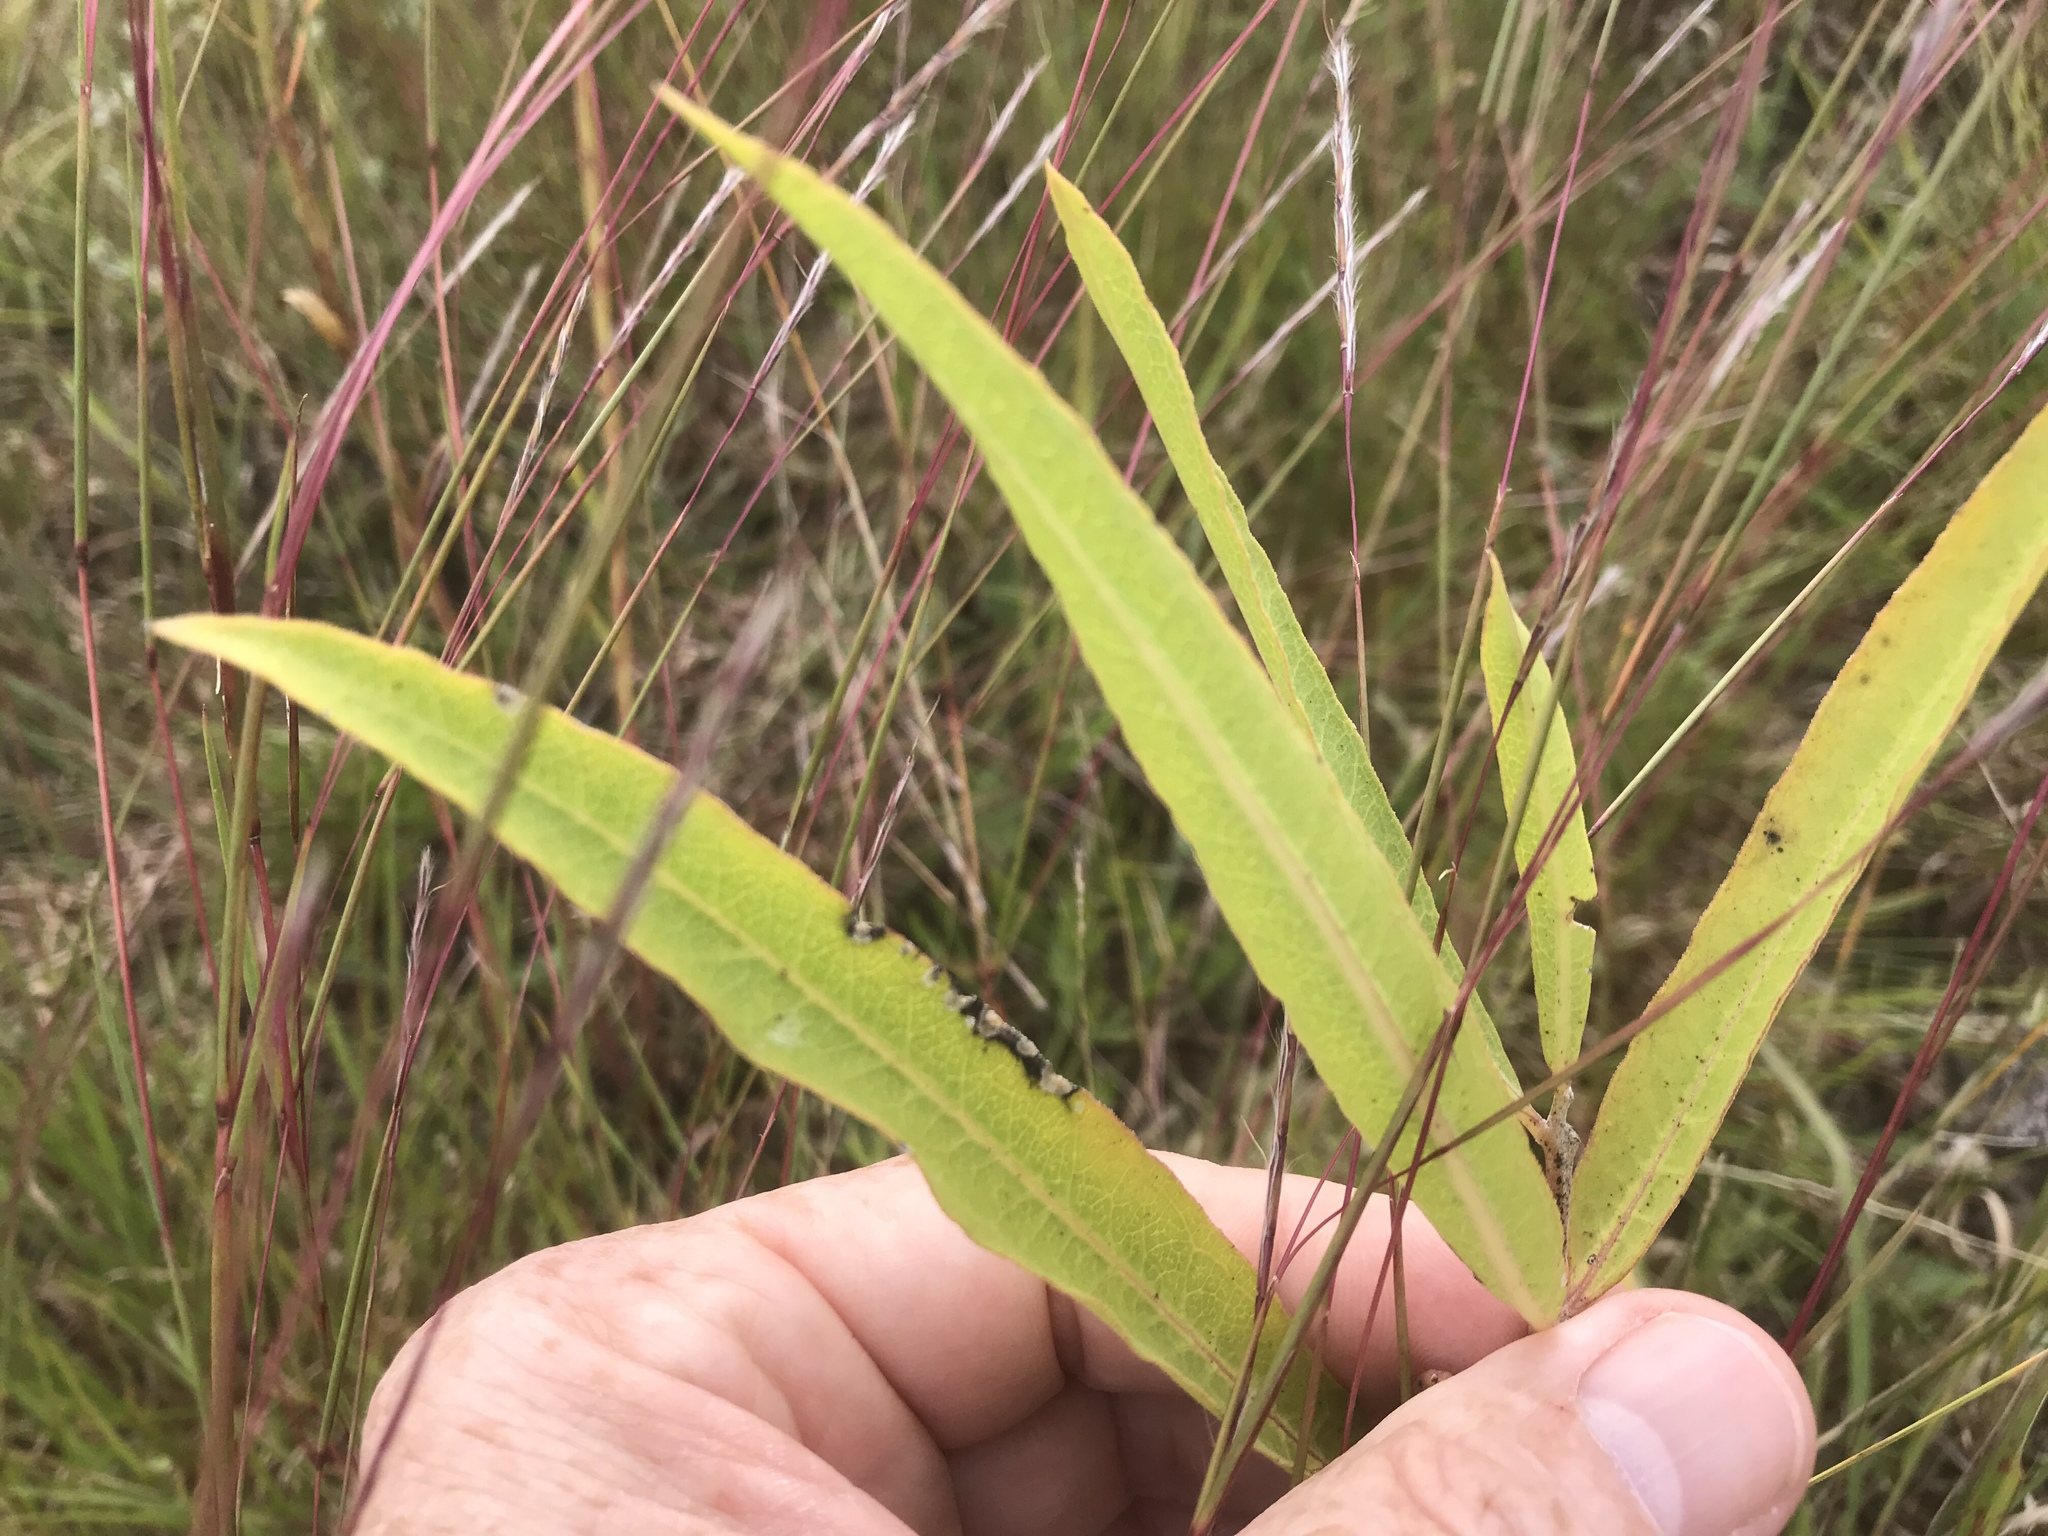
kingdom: Plantae
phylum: Tracheophyta
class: Magnoliopsida
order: Gentianales
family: Apocynaceae
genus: Asclepias
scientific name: Asclepias viridiflora
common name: Green comet milkweed
